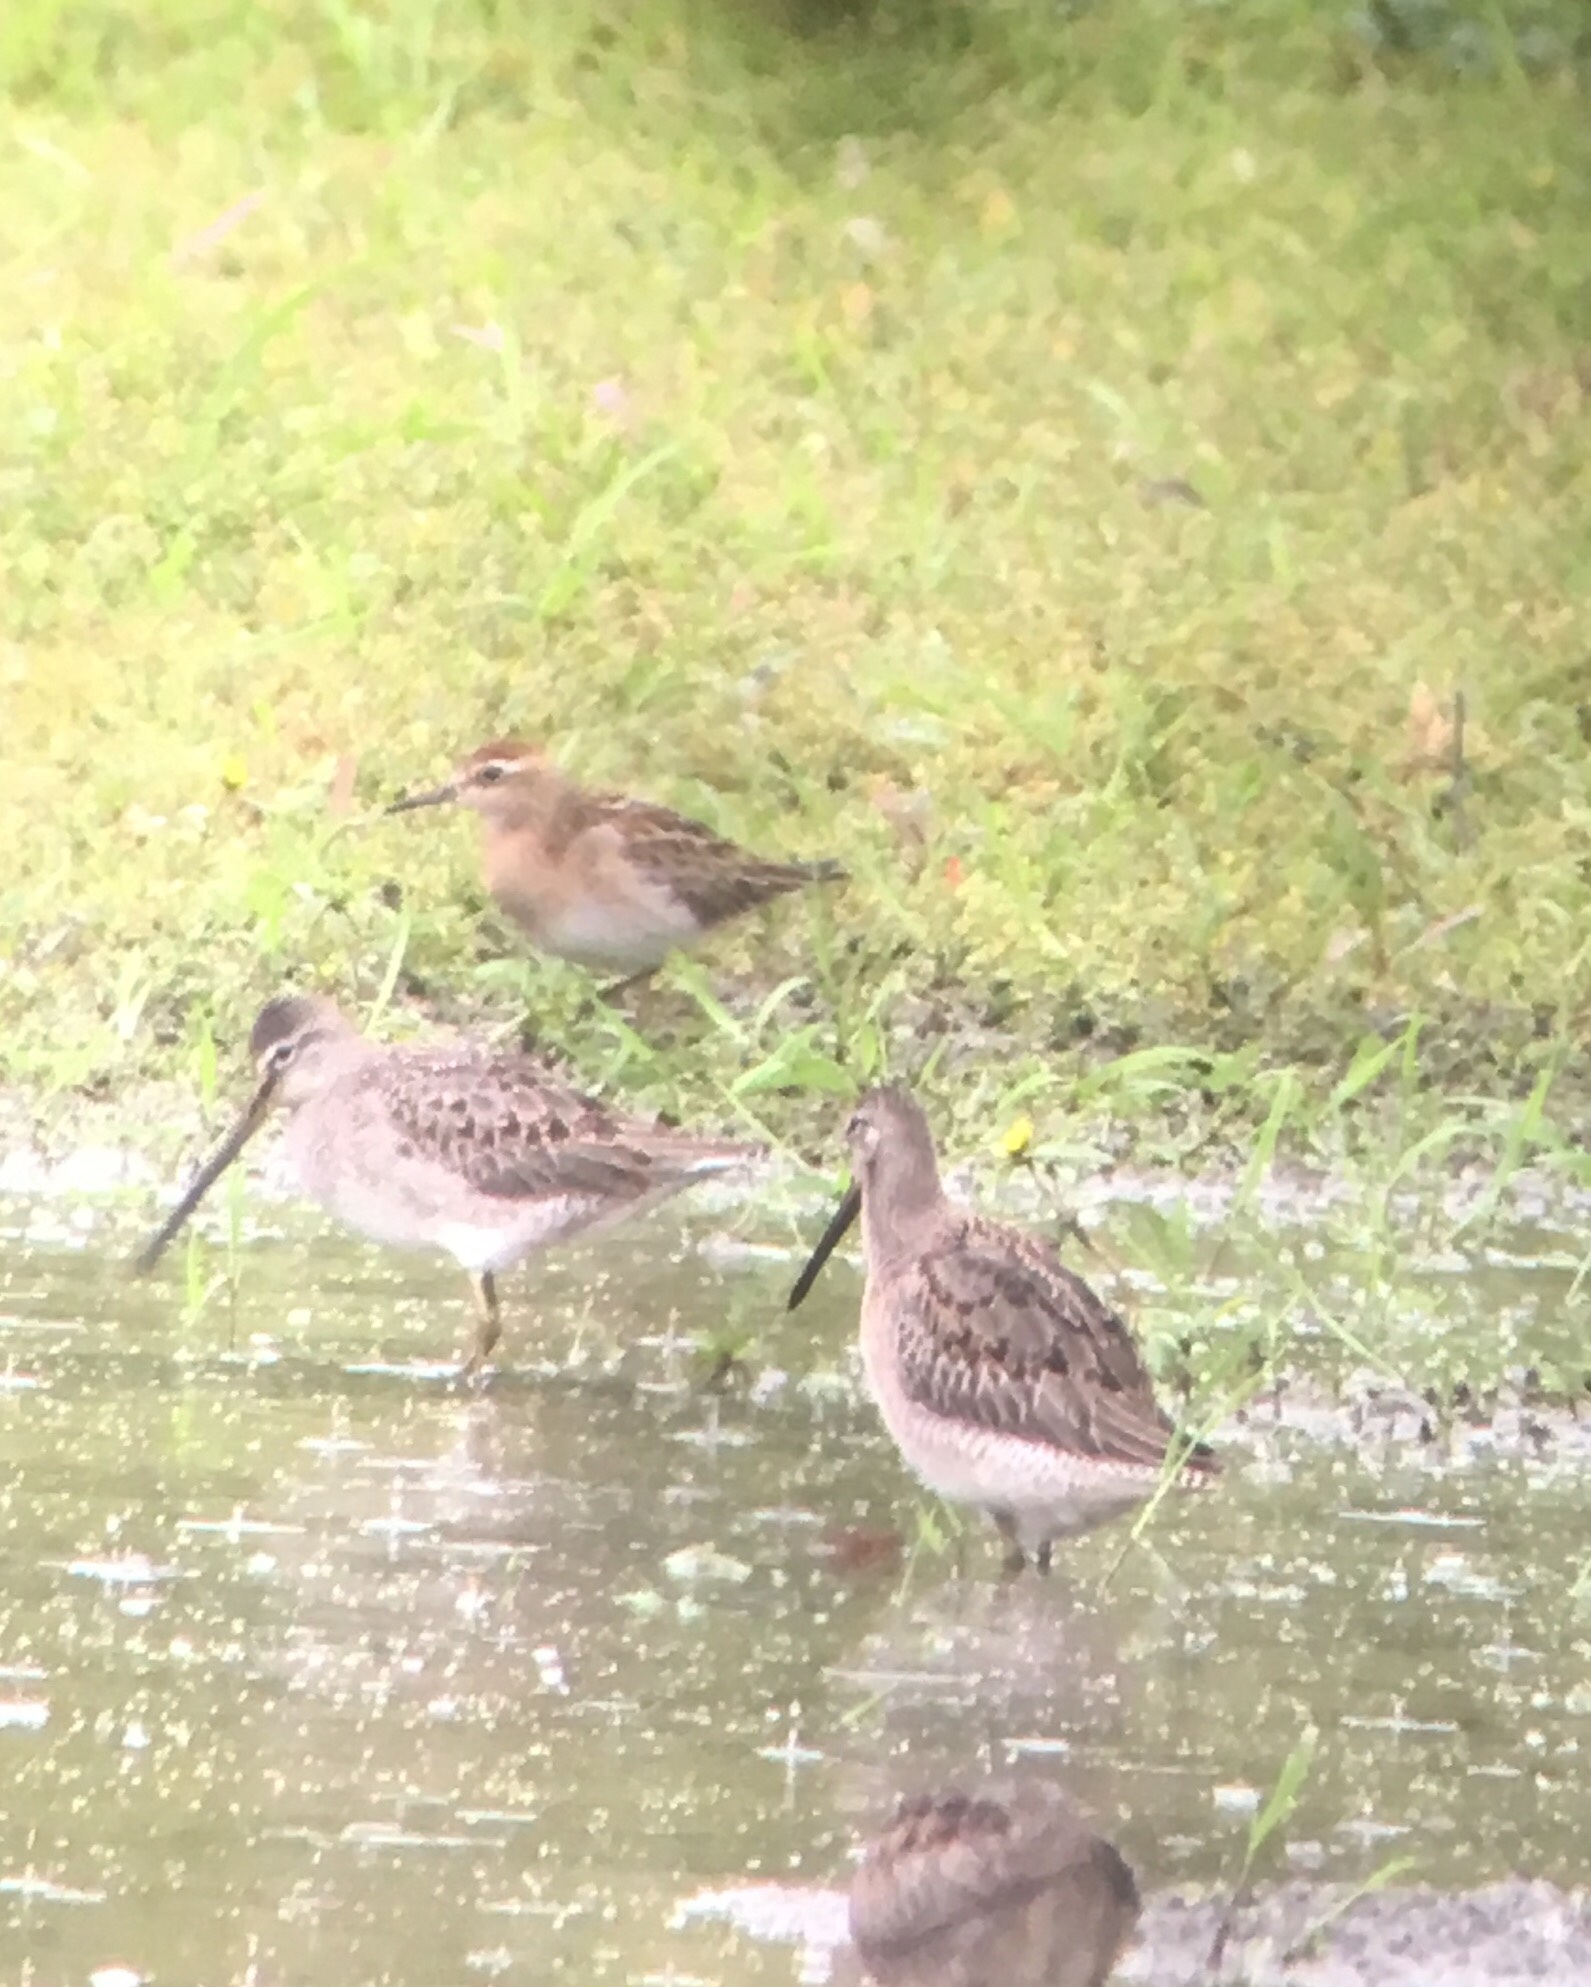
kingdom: Animalia
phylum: Chordata
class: Aves
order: Charadriiformes
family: Scolopacidae
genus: Calidris
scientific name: Calidris acuminata
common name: Sharp-tailed sandpiper
